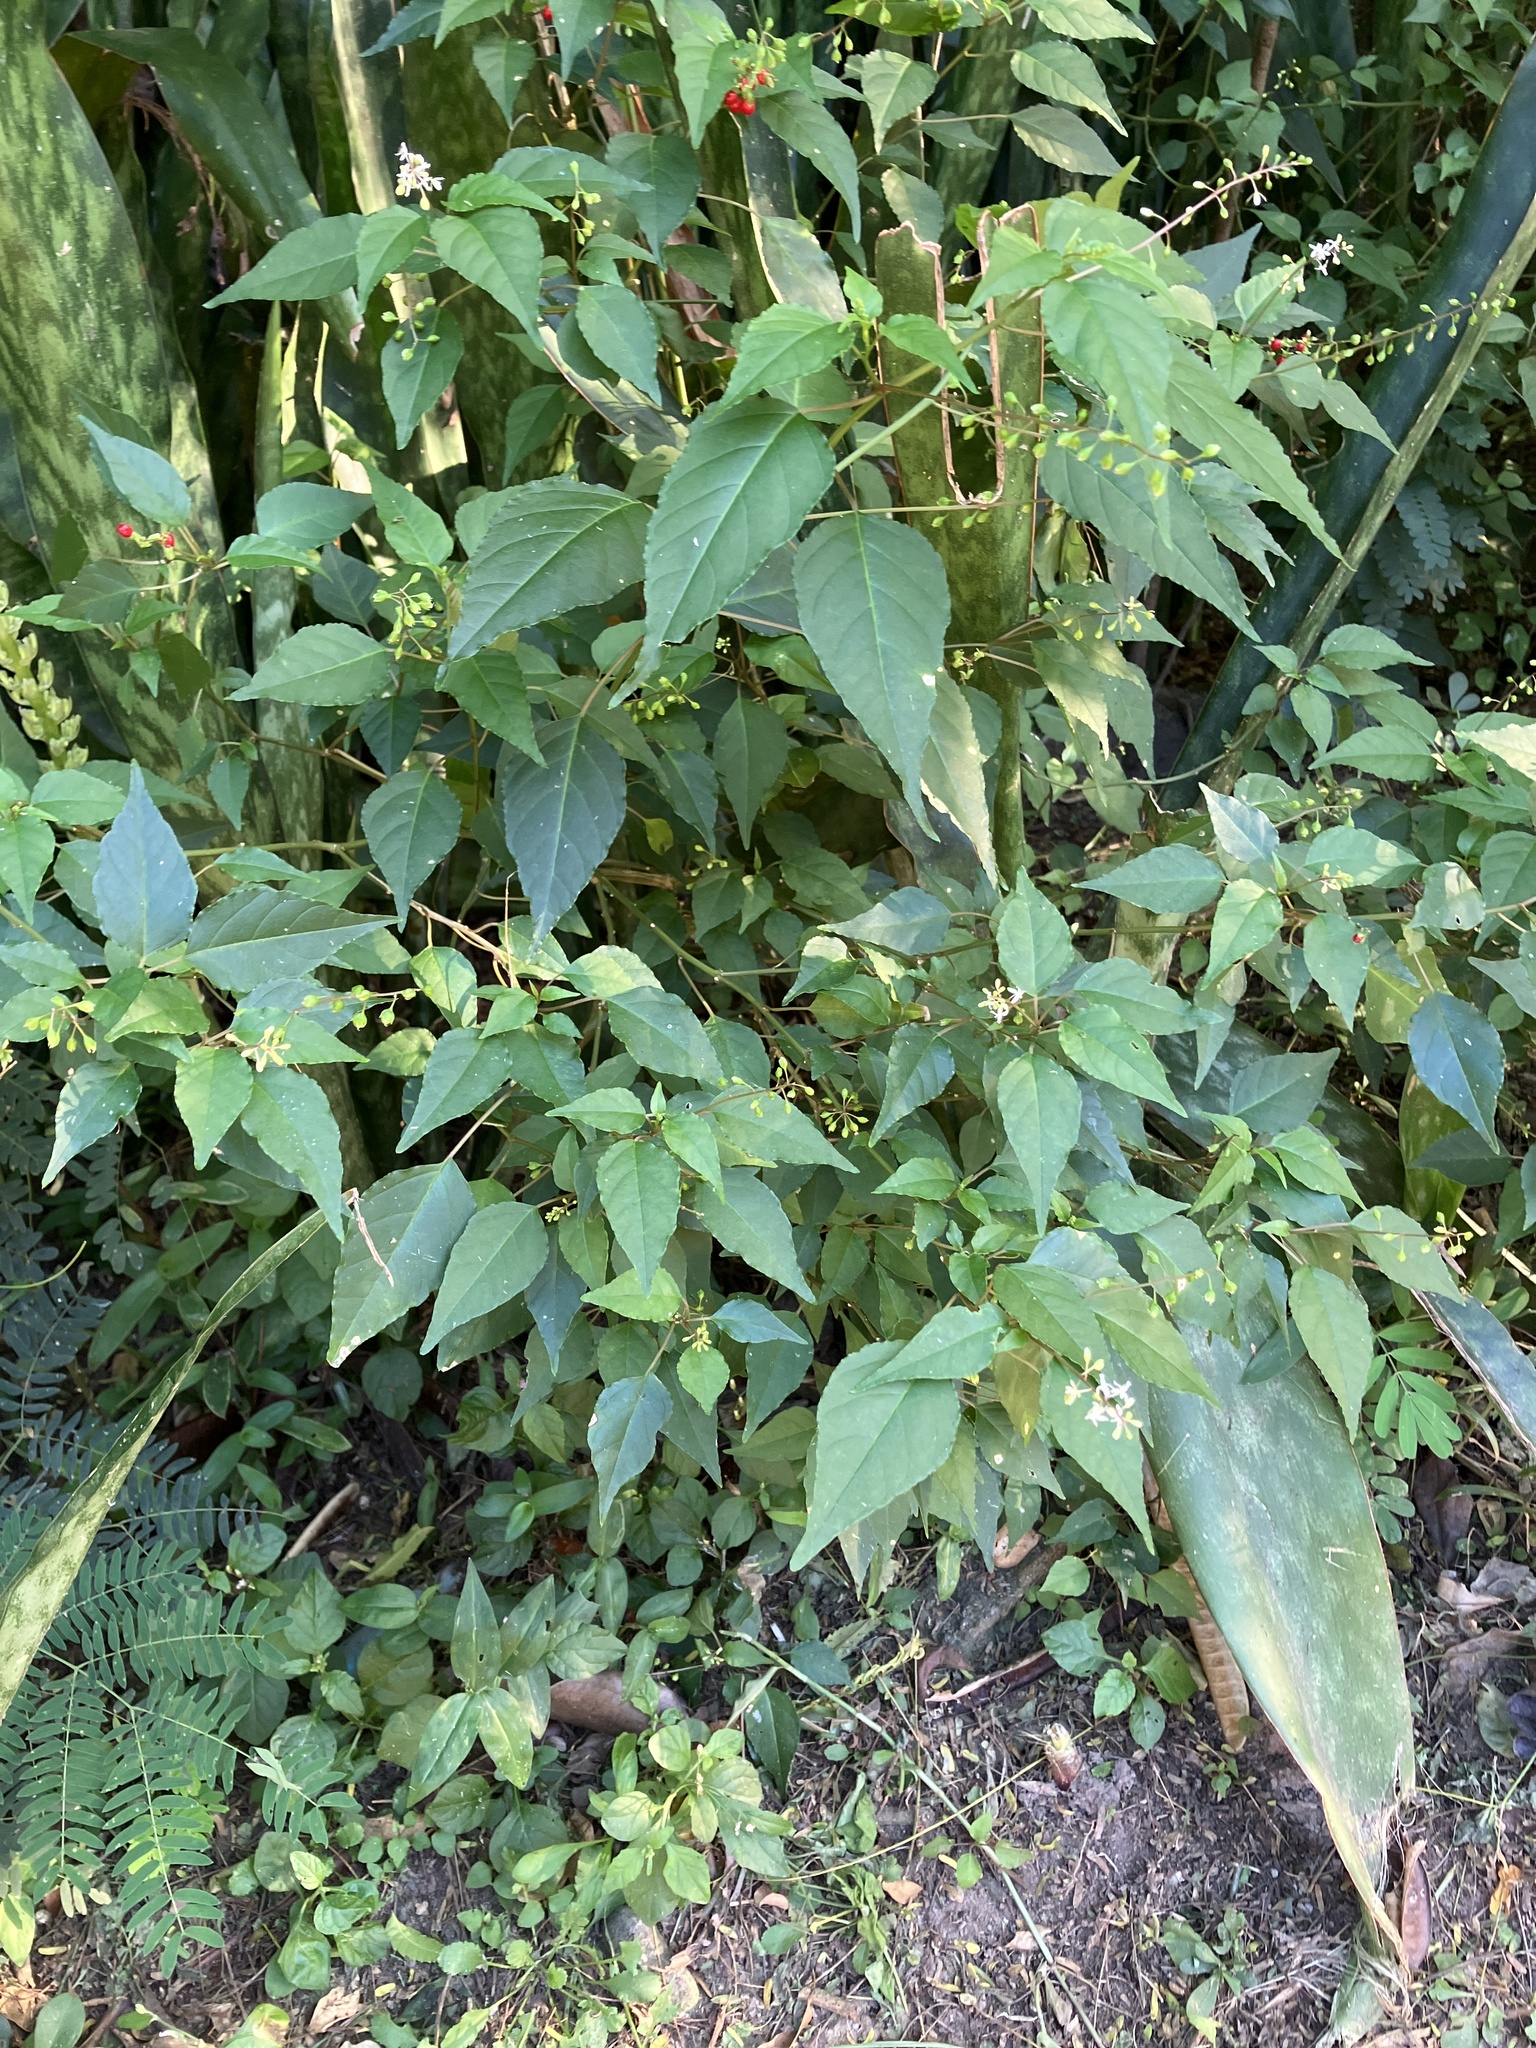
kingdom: Plantae
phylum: Tracheophyta
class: Magnoliopsida
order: Caryophyllales
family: Phytolaccaceae
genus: Rivina
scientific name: Rivina humilis
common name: Rougeplant
